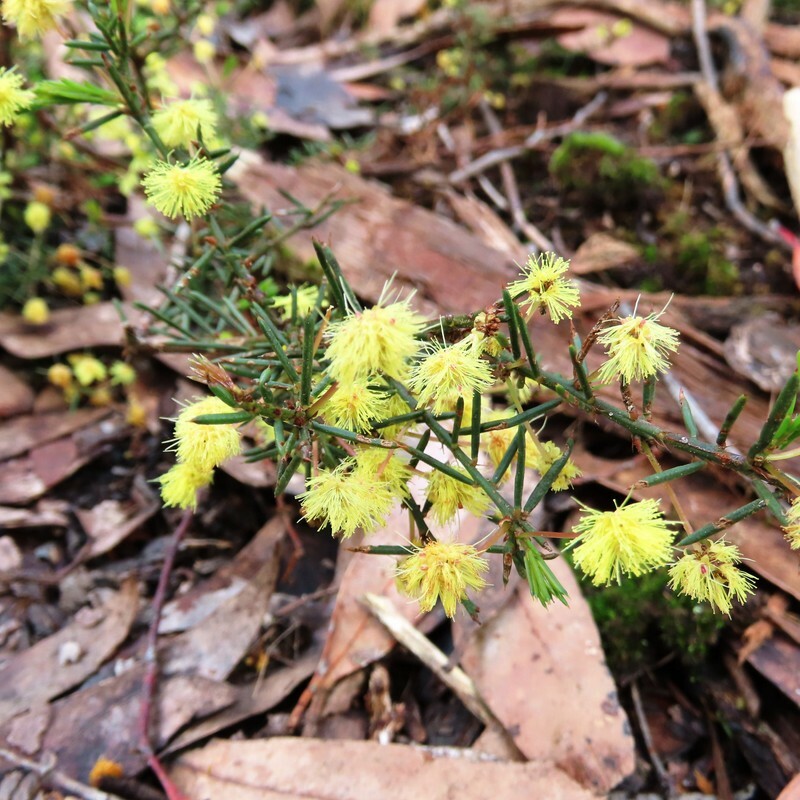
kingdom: Plantae
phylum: Tracheophyta
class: Magnoliopsida
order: Fabales
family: Fabaceae
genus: Acacia
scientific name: Acacia aculeatissima
